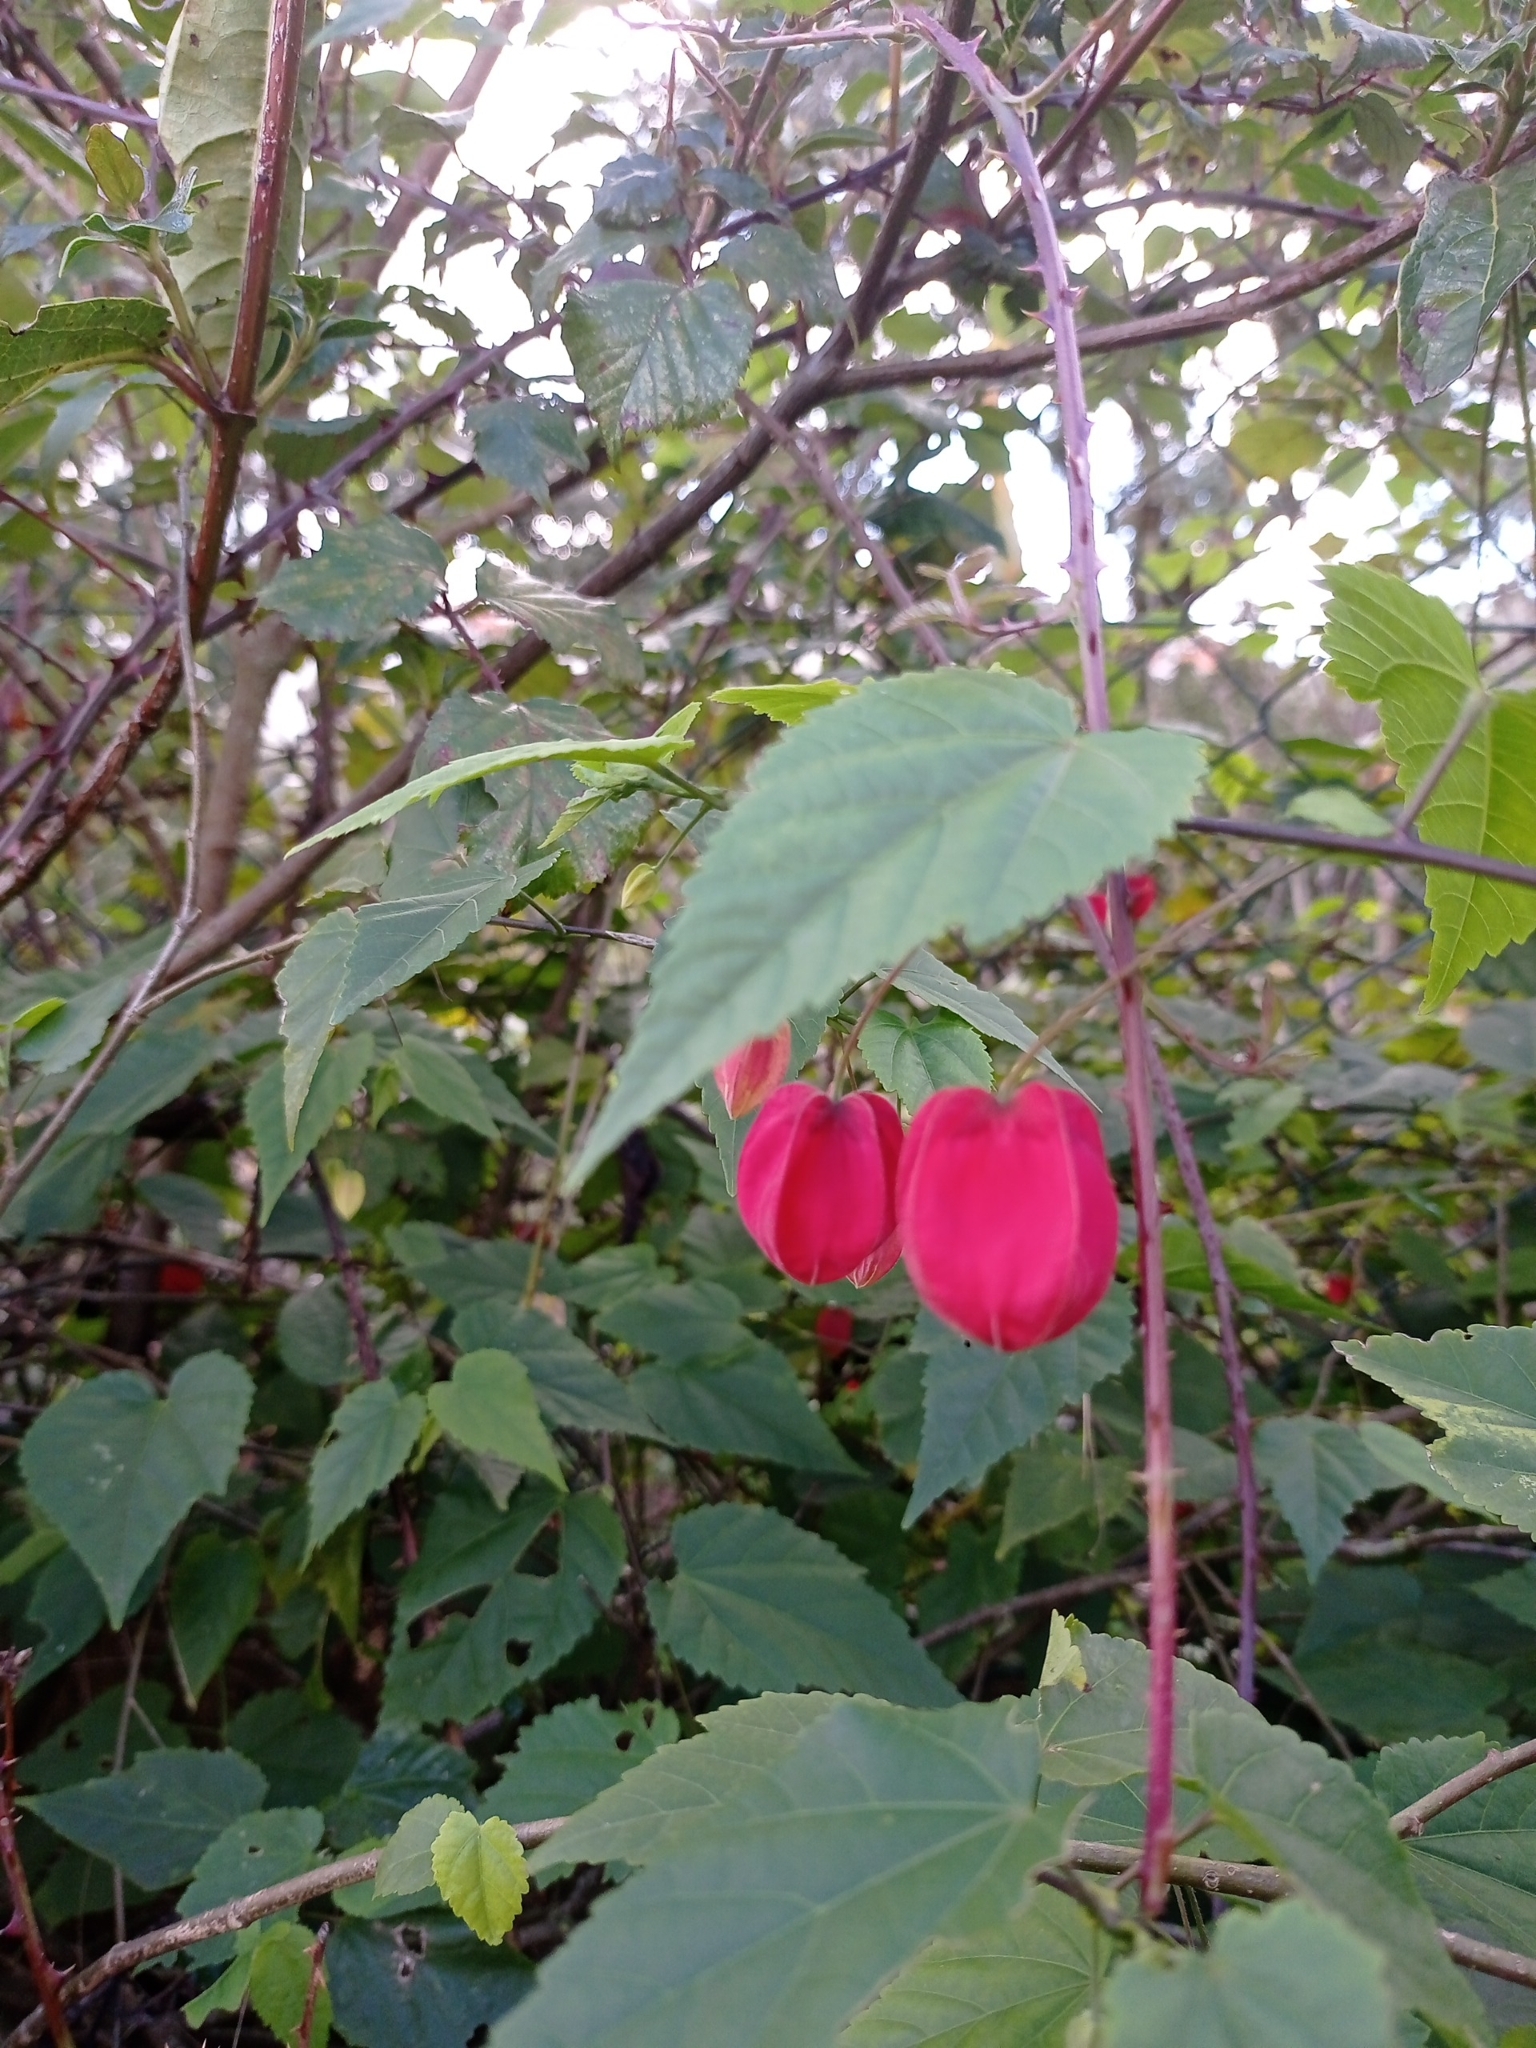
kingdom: Plantae
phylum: Tracheophyta
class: Magnoliopsida
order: Malvales
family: Malvaceae
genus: Callianthe
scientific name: Callianthe megapotamica
